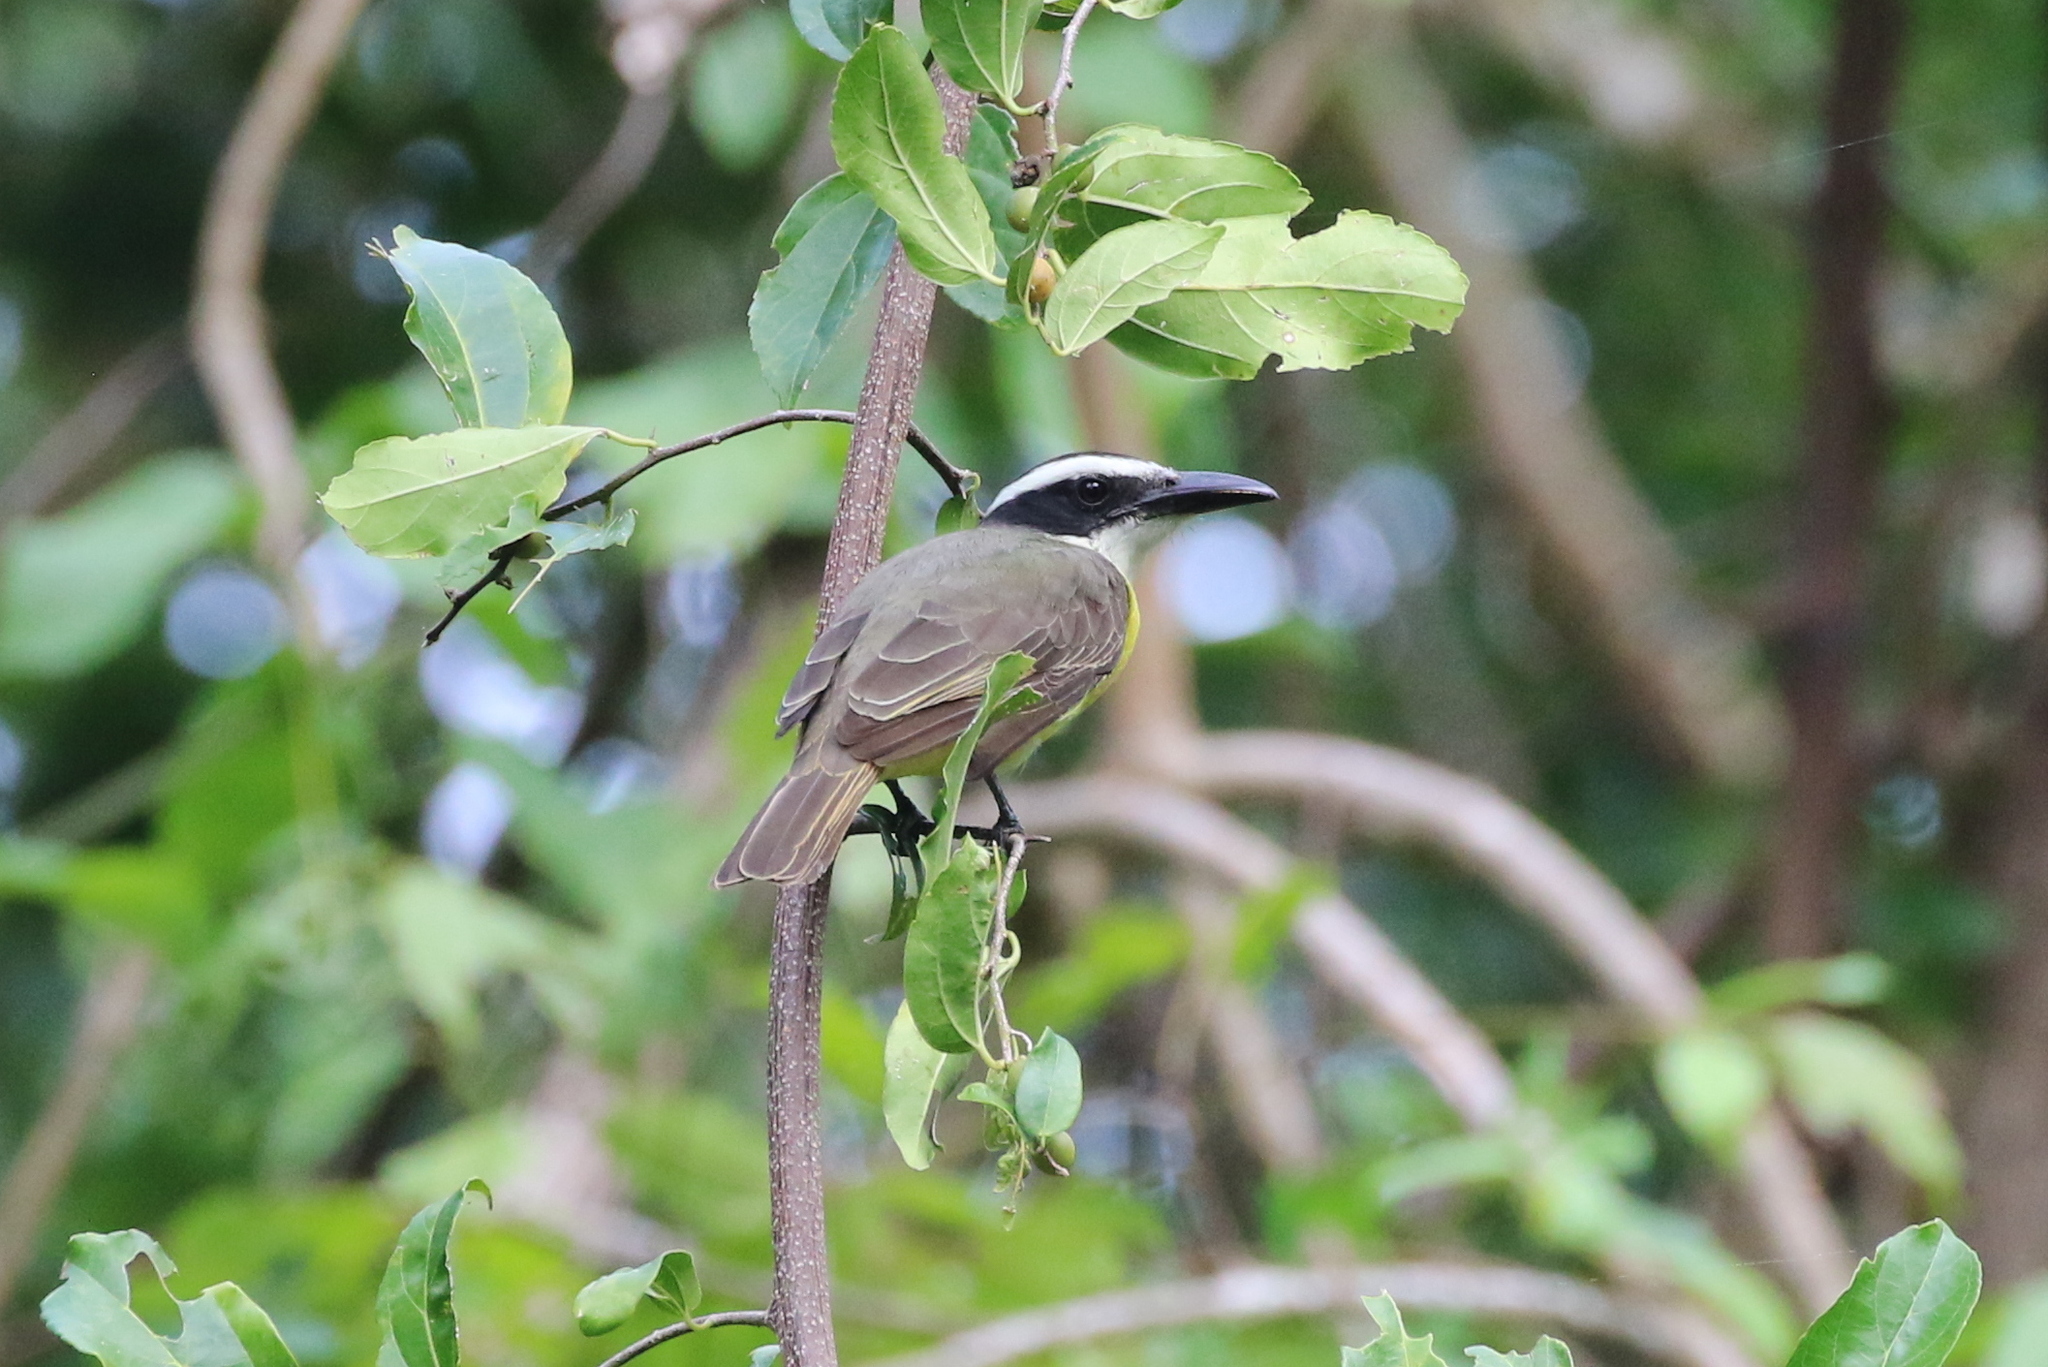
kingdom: Animalia
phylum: Chordata
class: Aves
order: Passeriformes
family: Tyrannidae
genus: Megarynchus
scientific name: Megarynchus pitangua
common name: Boat-billed flycatcher
